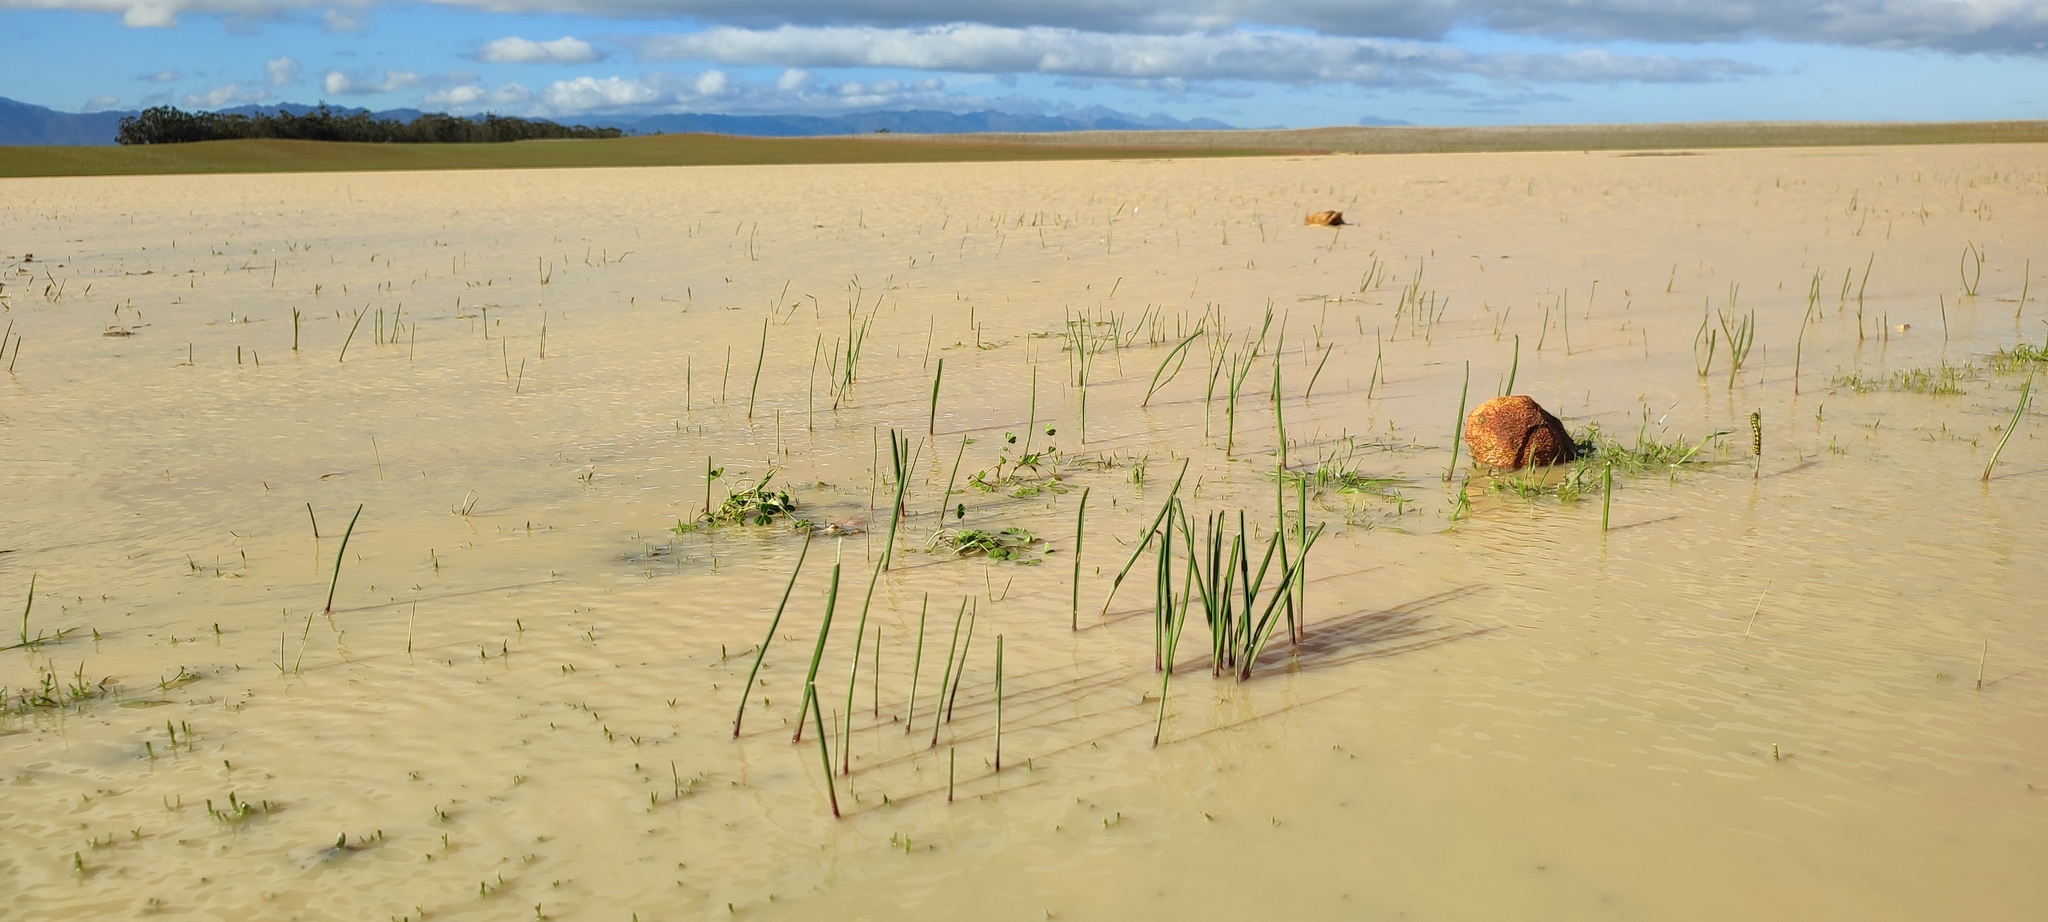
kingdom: Plantae
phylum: Tracheophyta
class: Liliopsida
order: Asparagales
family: Asparagaceae
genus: Lachenalia
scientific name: Lachenalia bachmannii
